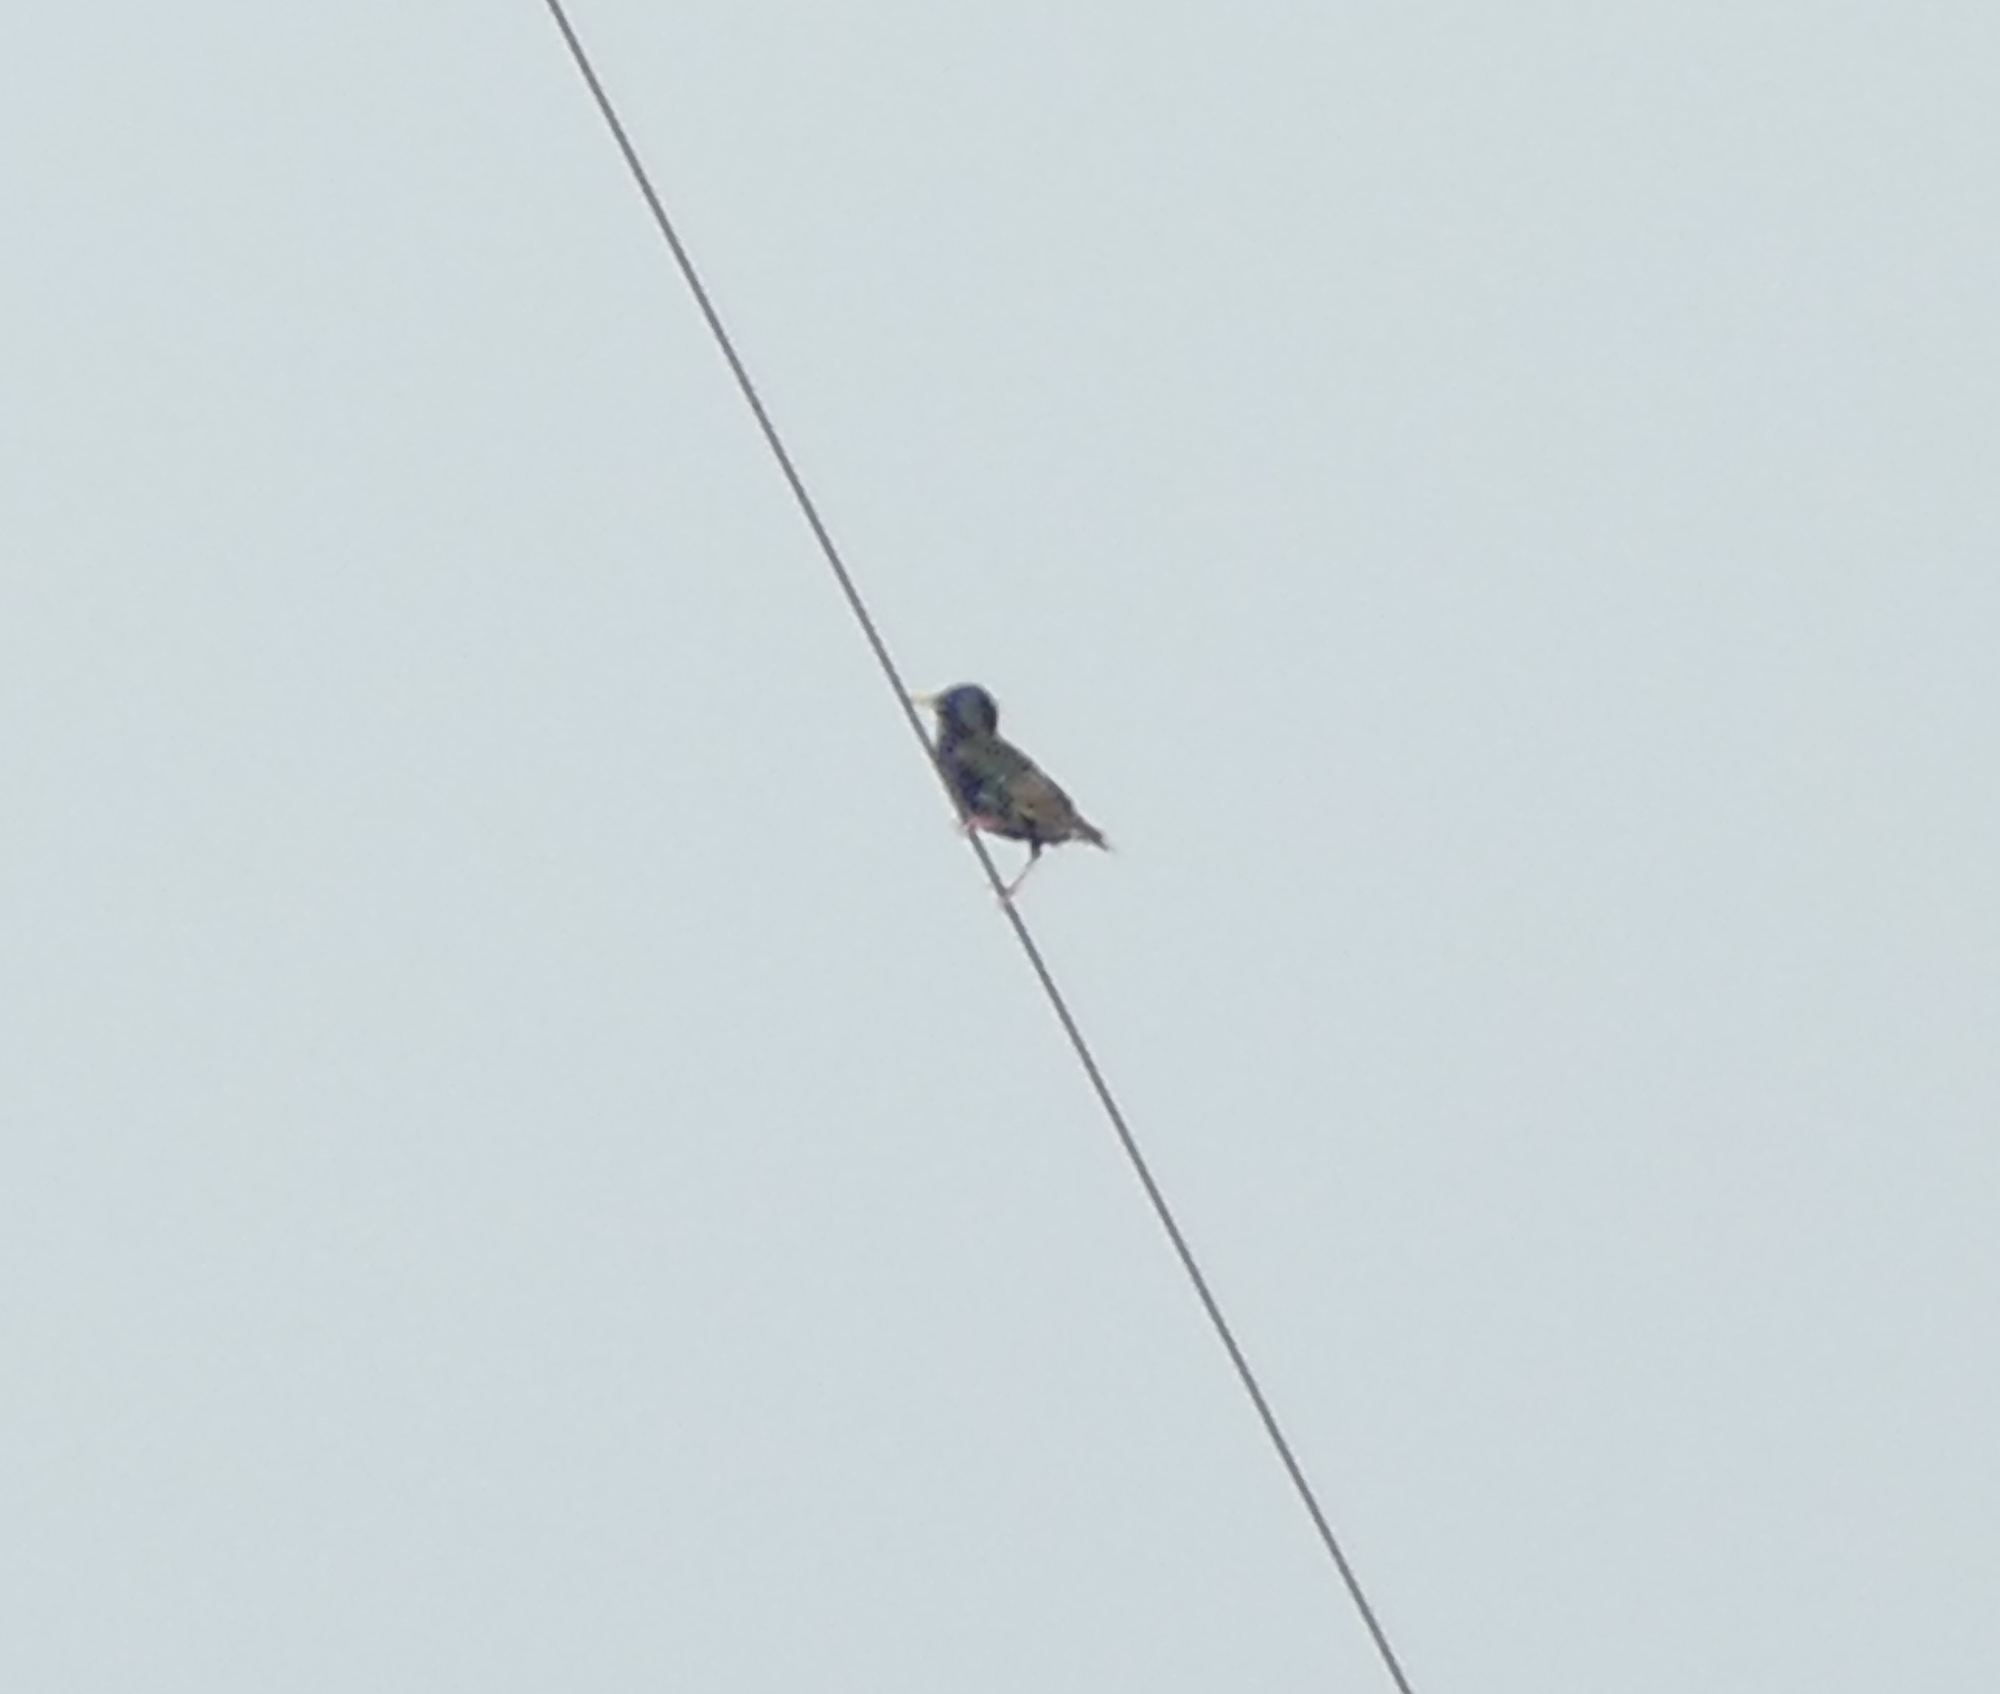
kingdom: Animalia
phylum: Chordata
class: Aves
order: Passeriformes
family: Sturnidae
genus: Sturnus
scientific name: Sturnus vulgaris
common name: Common starling
